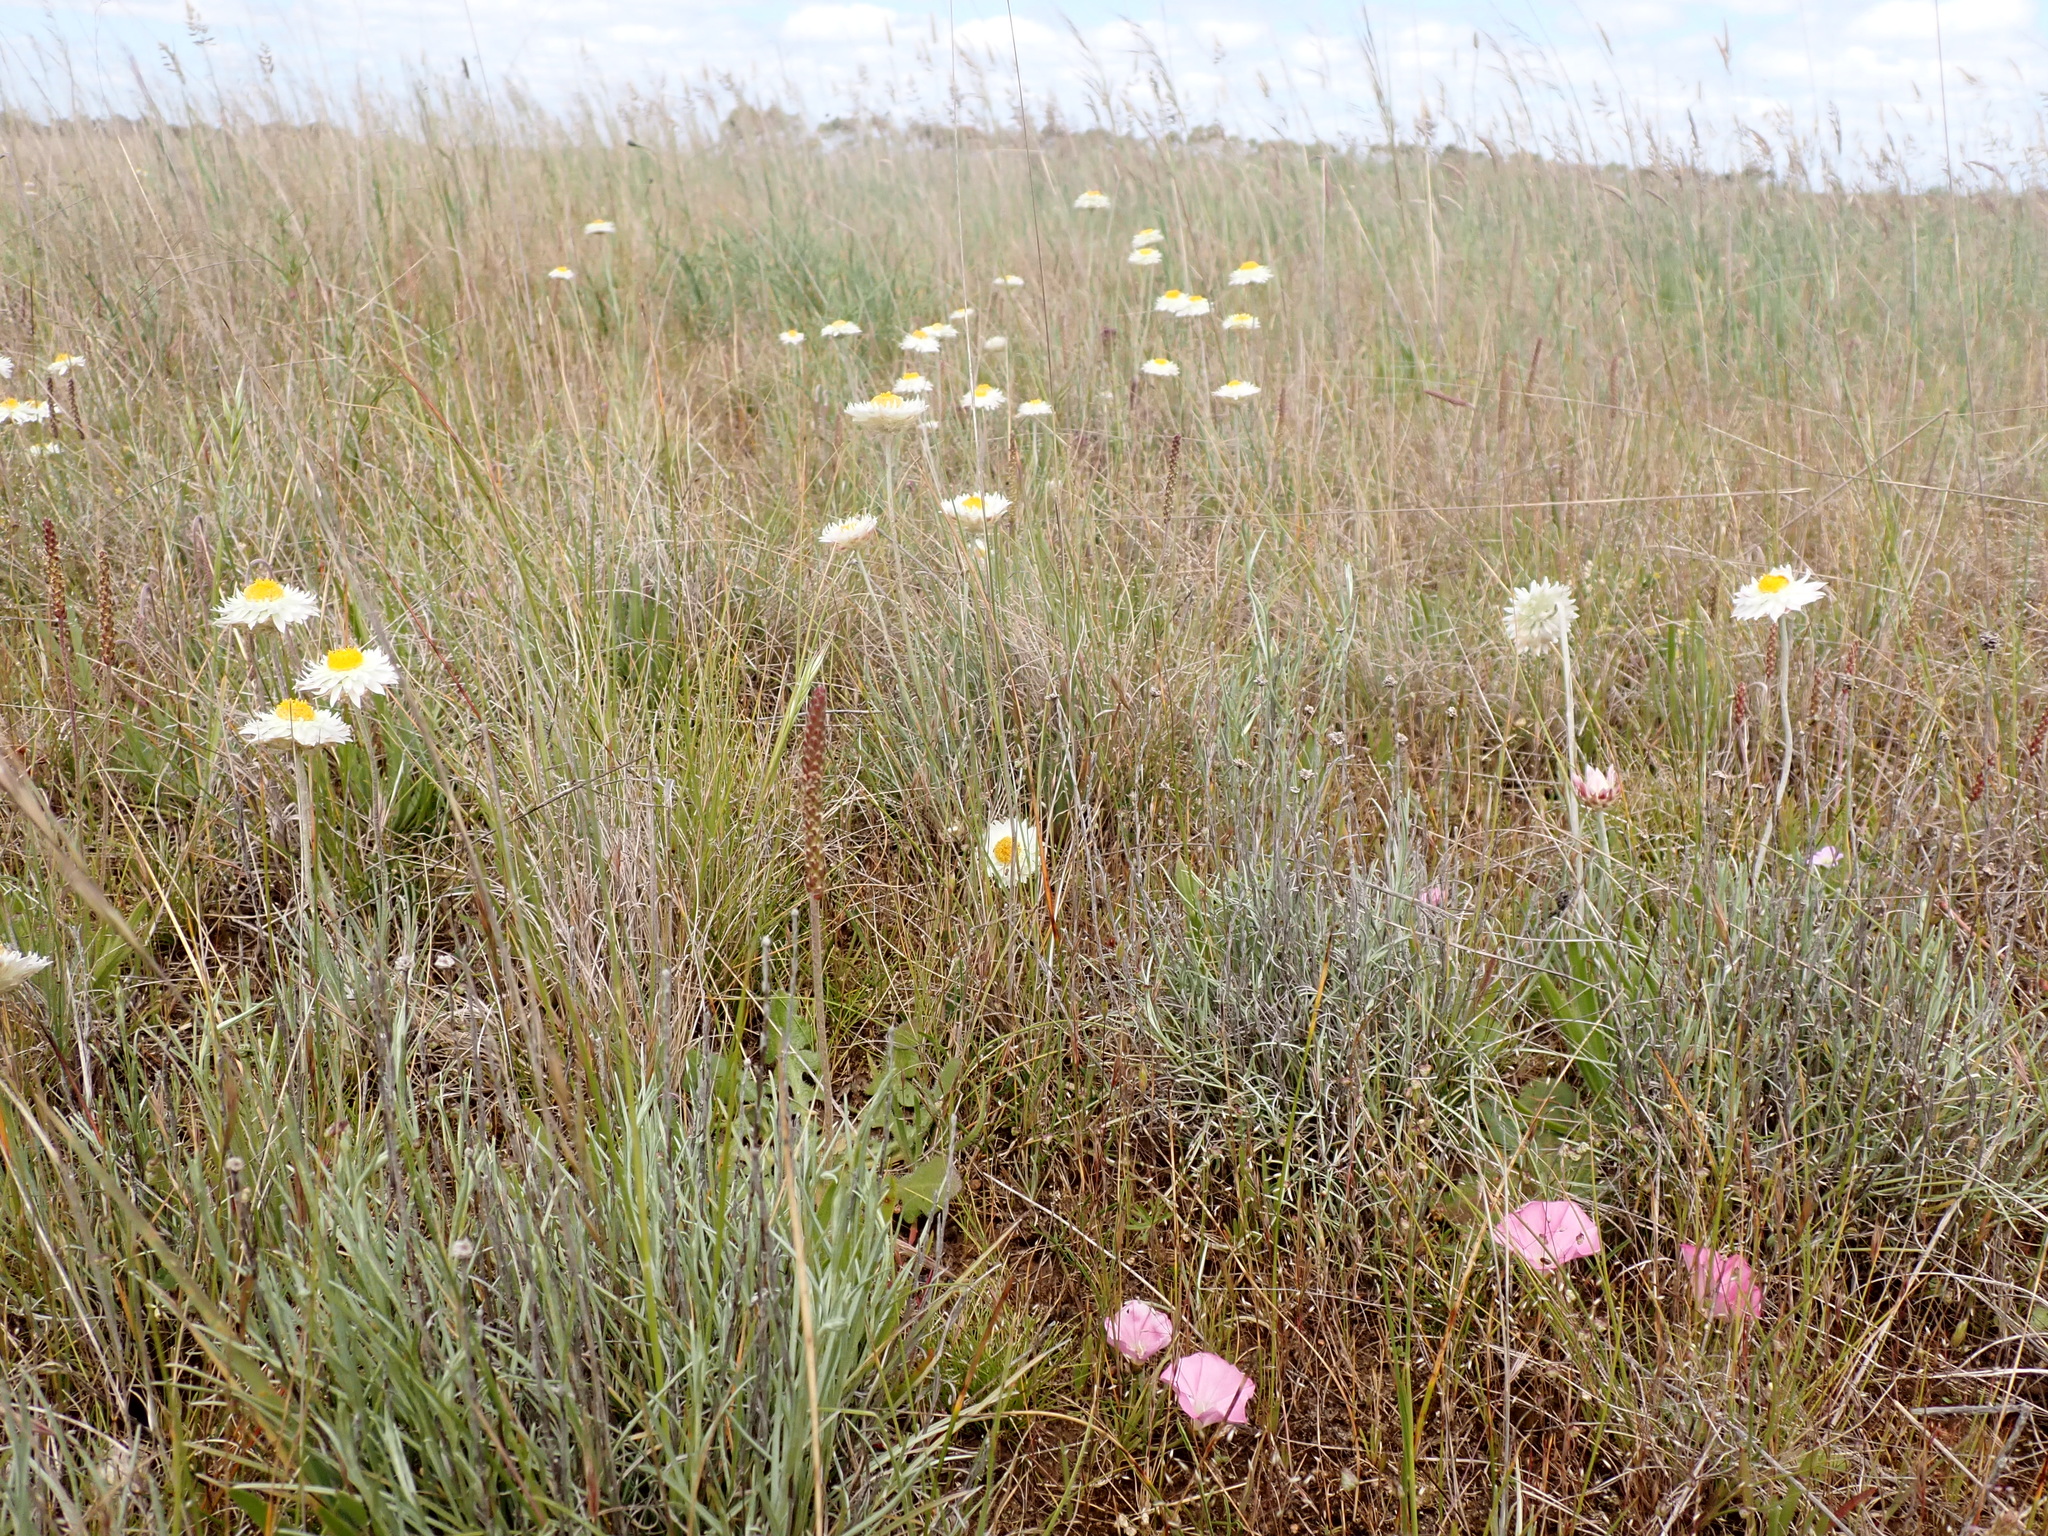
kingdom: Plantae
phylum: Tracheophyta
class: Magnoliopsida
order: Asterales
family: Asteraceae
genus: Leucochrysum
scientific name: Leucochrysum albicans
